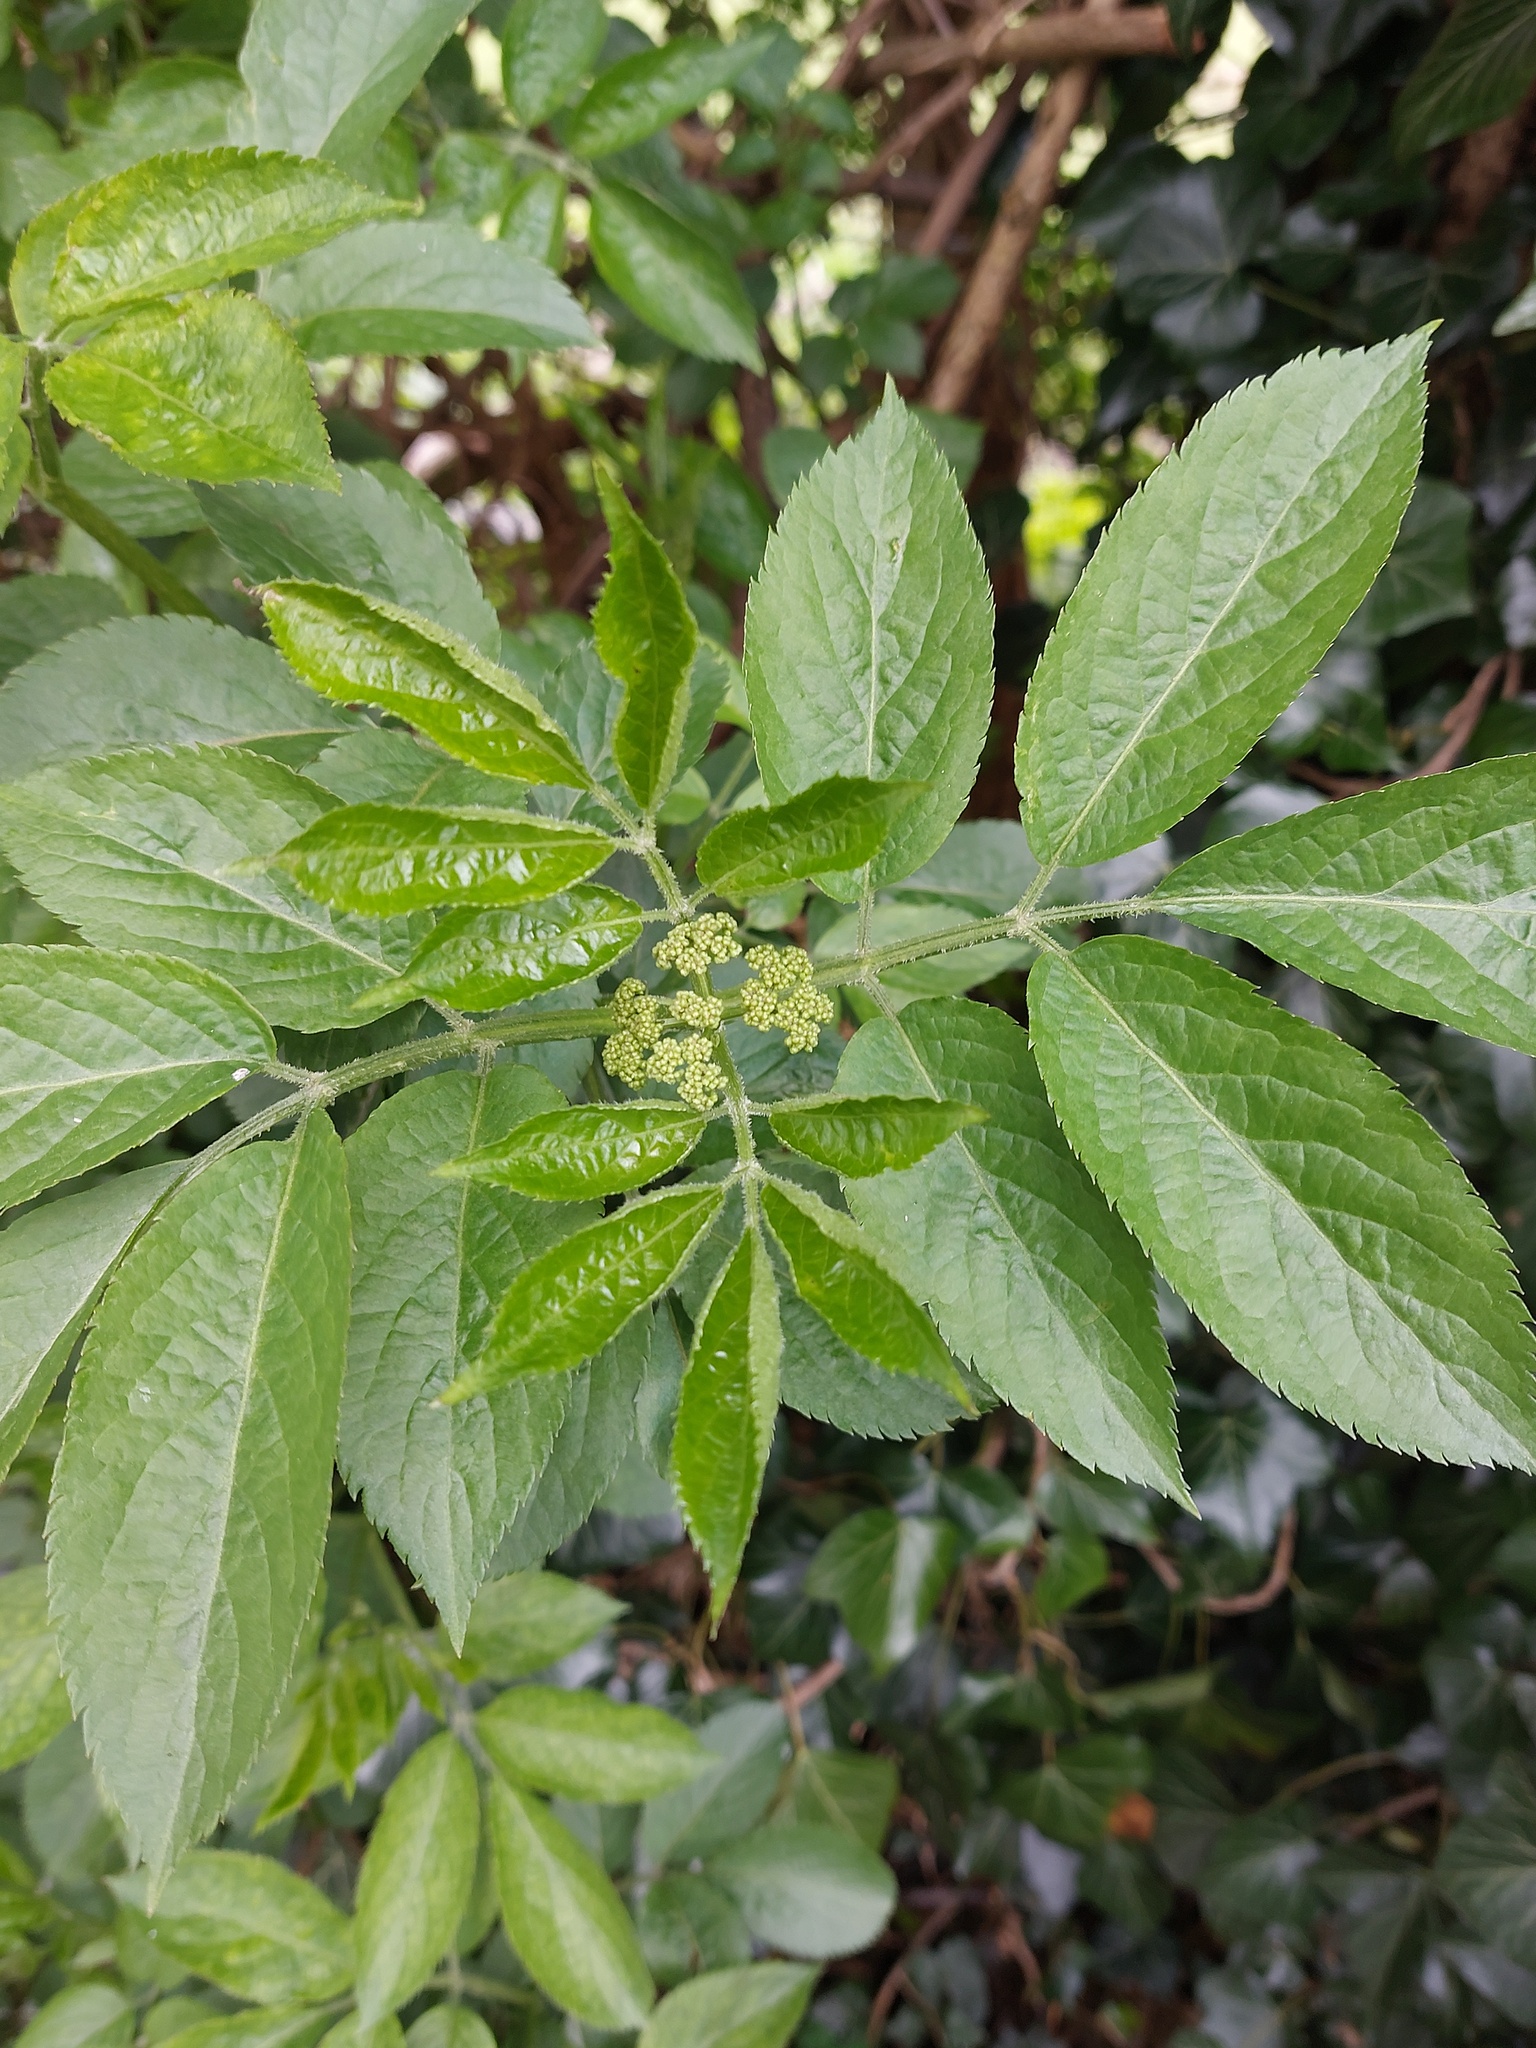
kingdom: Plantae
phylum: Tracheophyta
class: Magnoliopsida
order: Dipsacales
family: Viburnaceae
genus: Sambucus
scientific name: Sambucus nigra
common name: Elder
